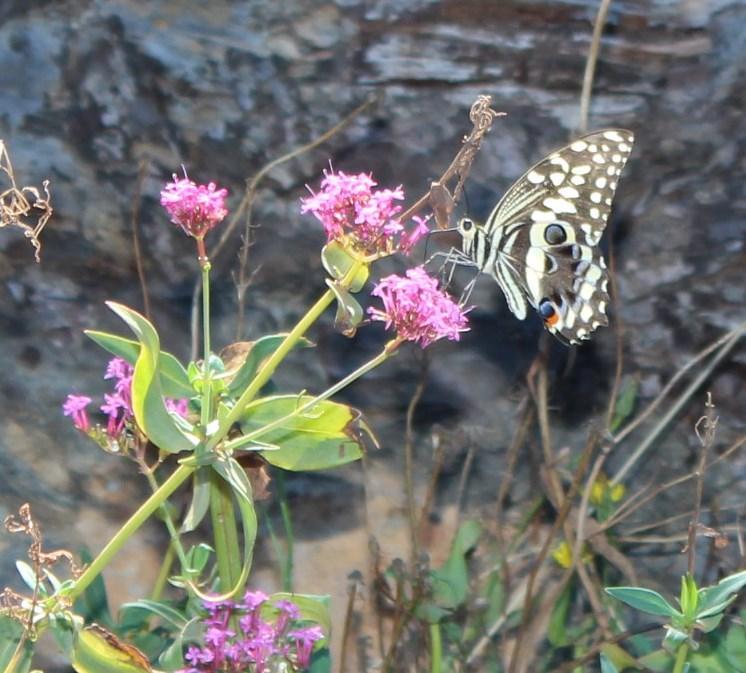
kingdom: Animalia
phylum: Arthropoda
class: Insecta
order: Lepidoptera
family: Papilionidae
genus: Papilio
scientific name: Papilio demodocus
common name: Christmas butterfly
